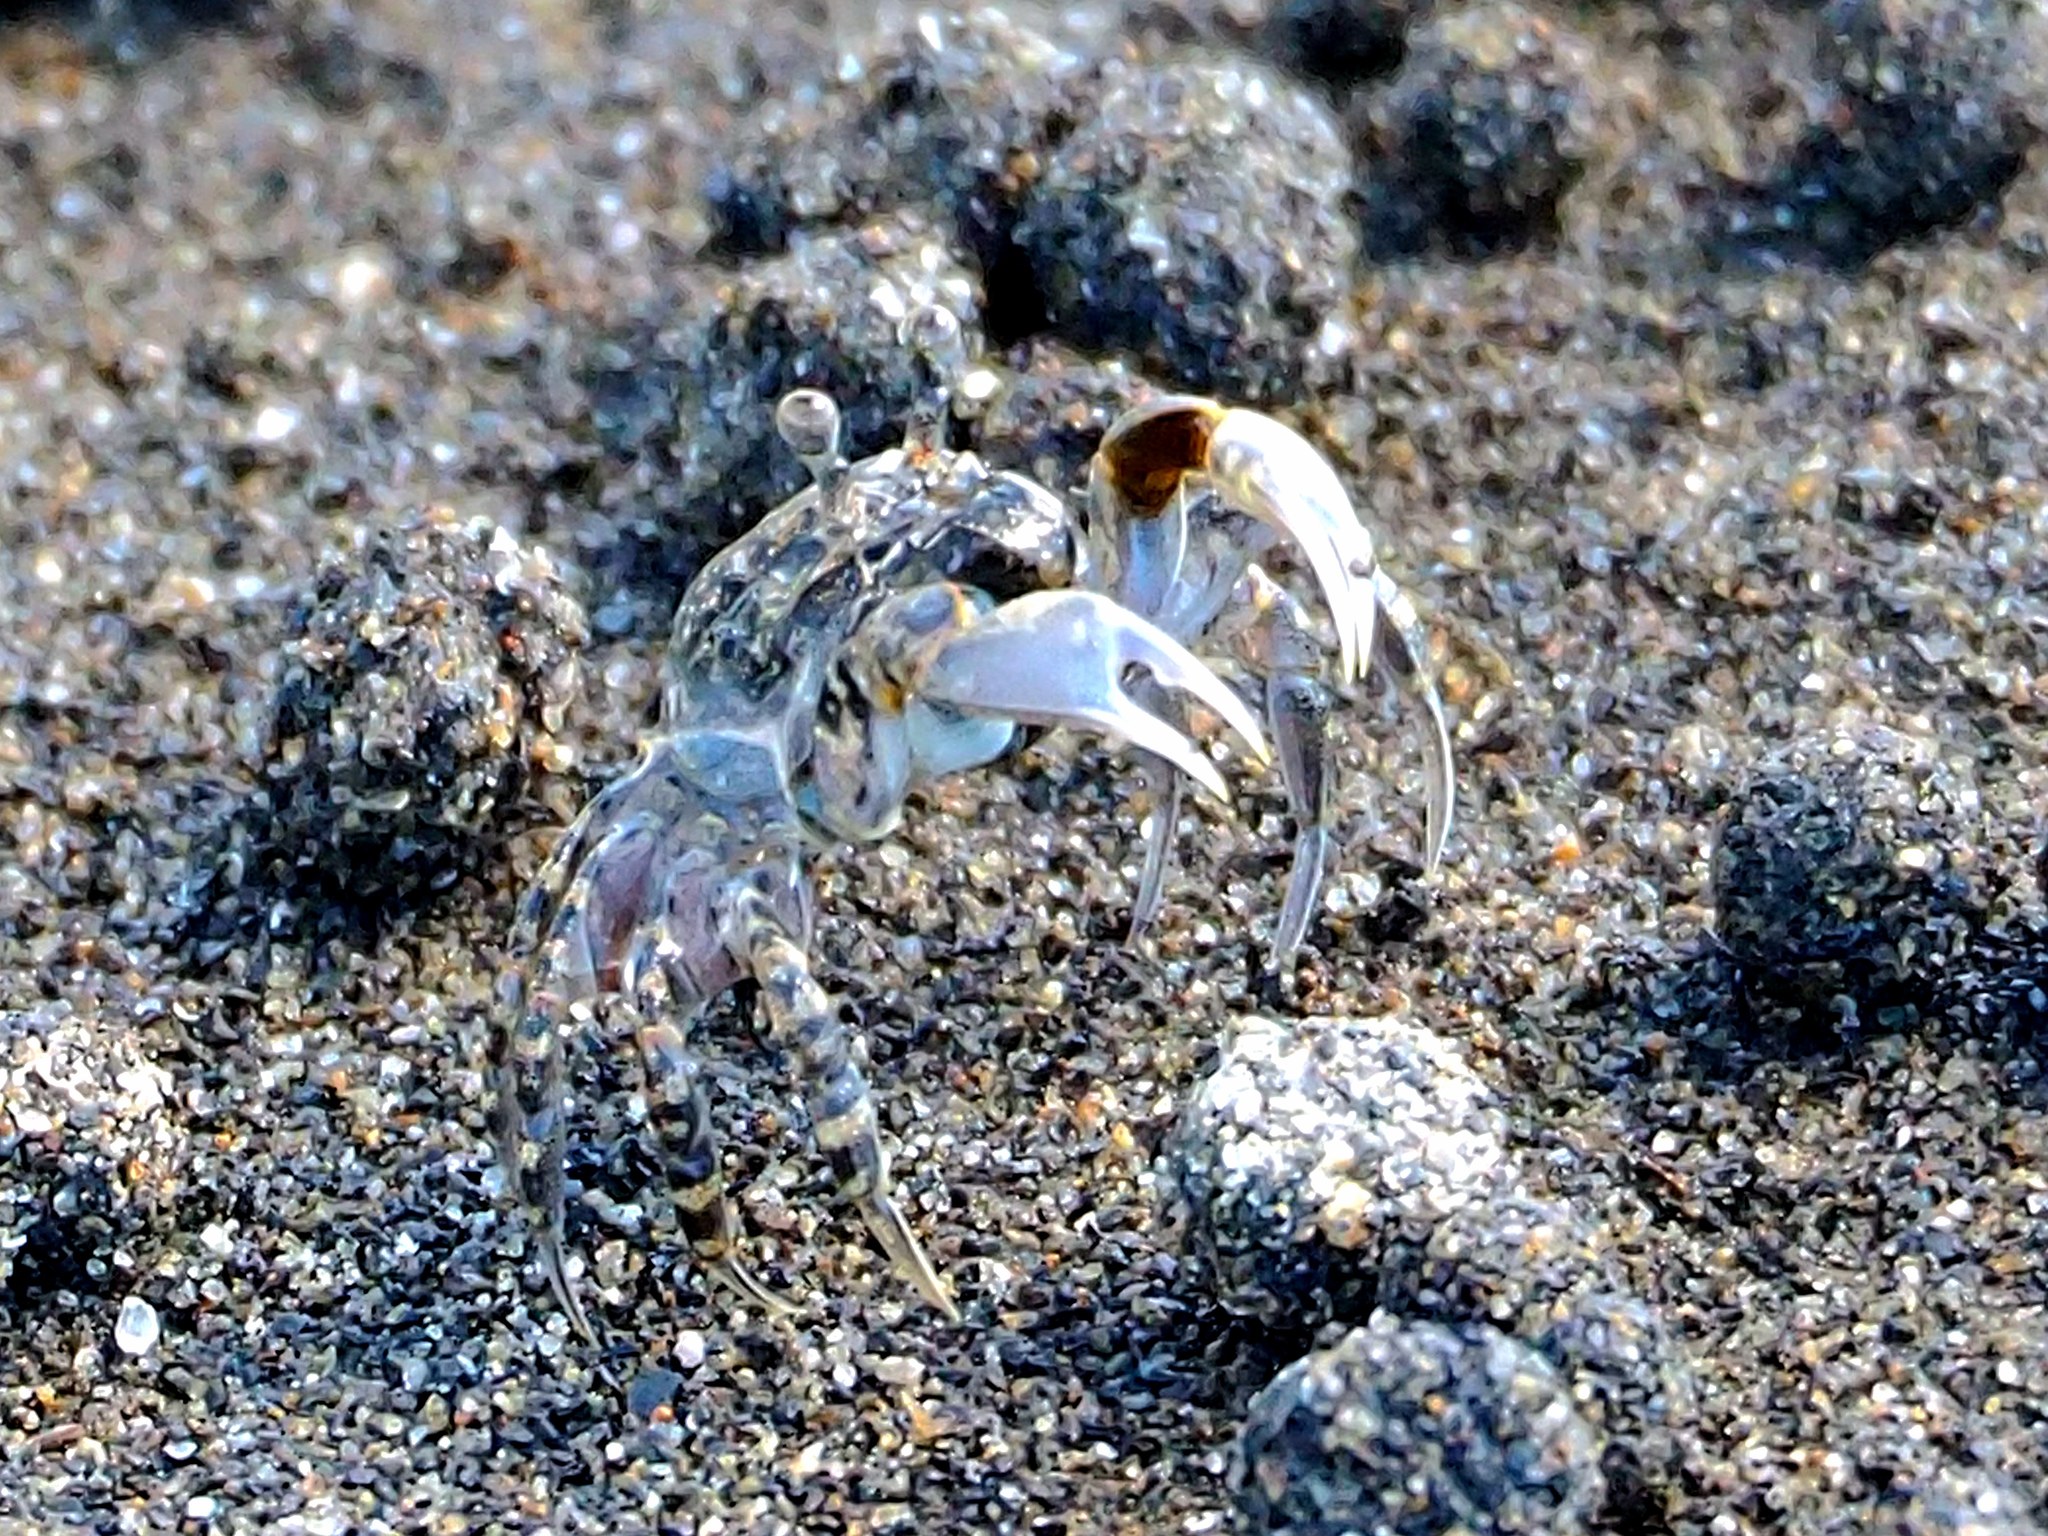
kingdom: Animalia
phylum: Arthropoda
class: Malacostraca
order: Decapoda
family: Dotillidae
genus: Scopimera
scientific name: Scopimera bitympana
